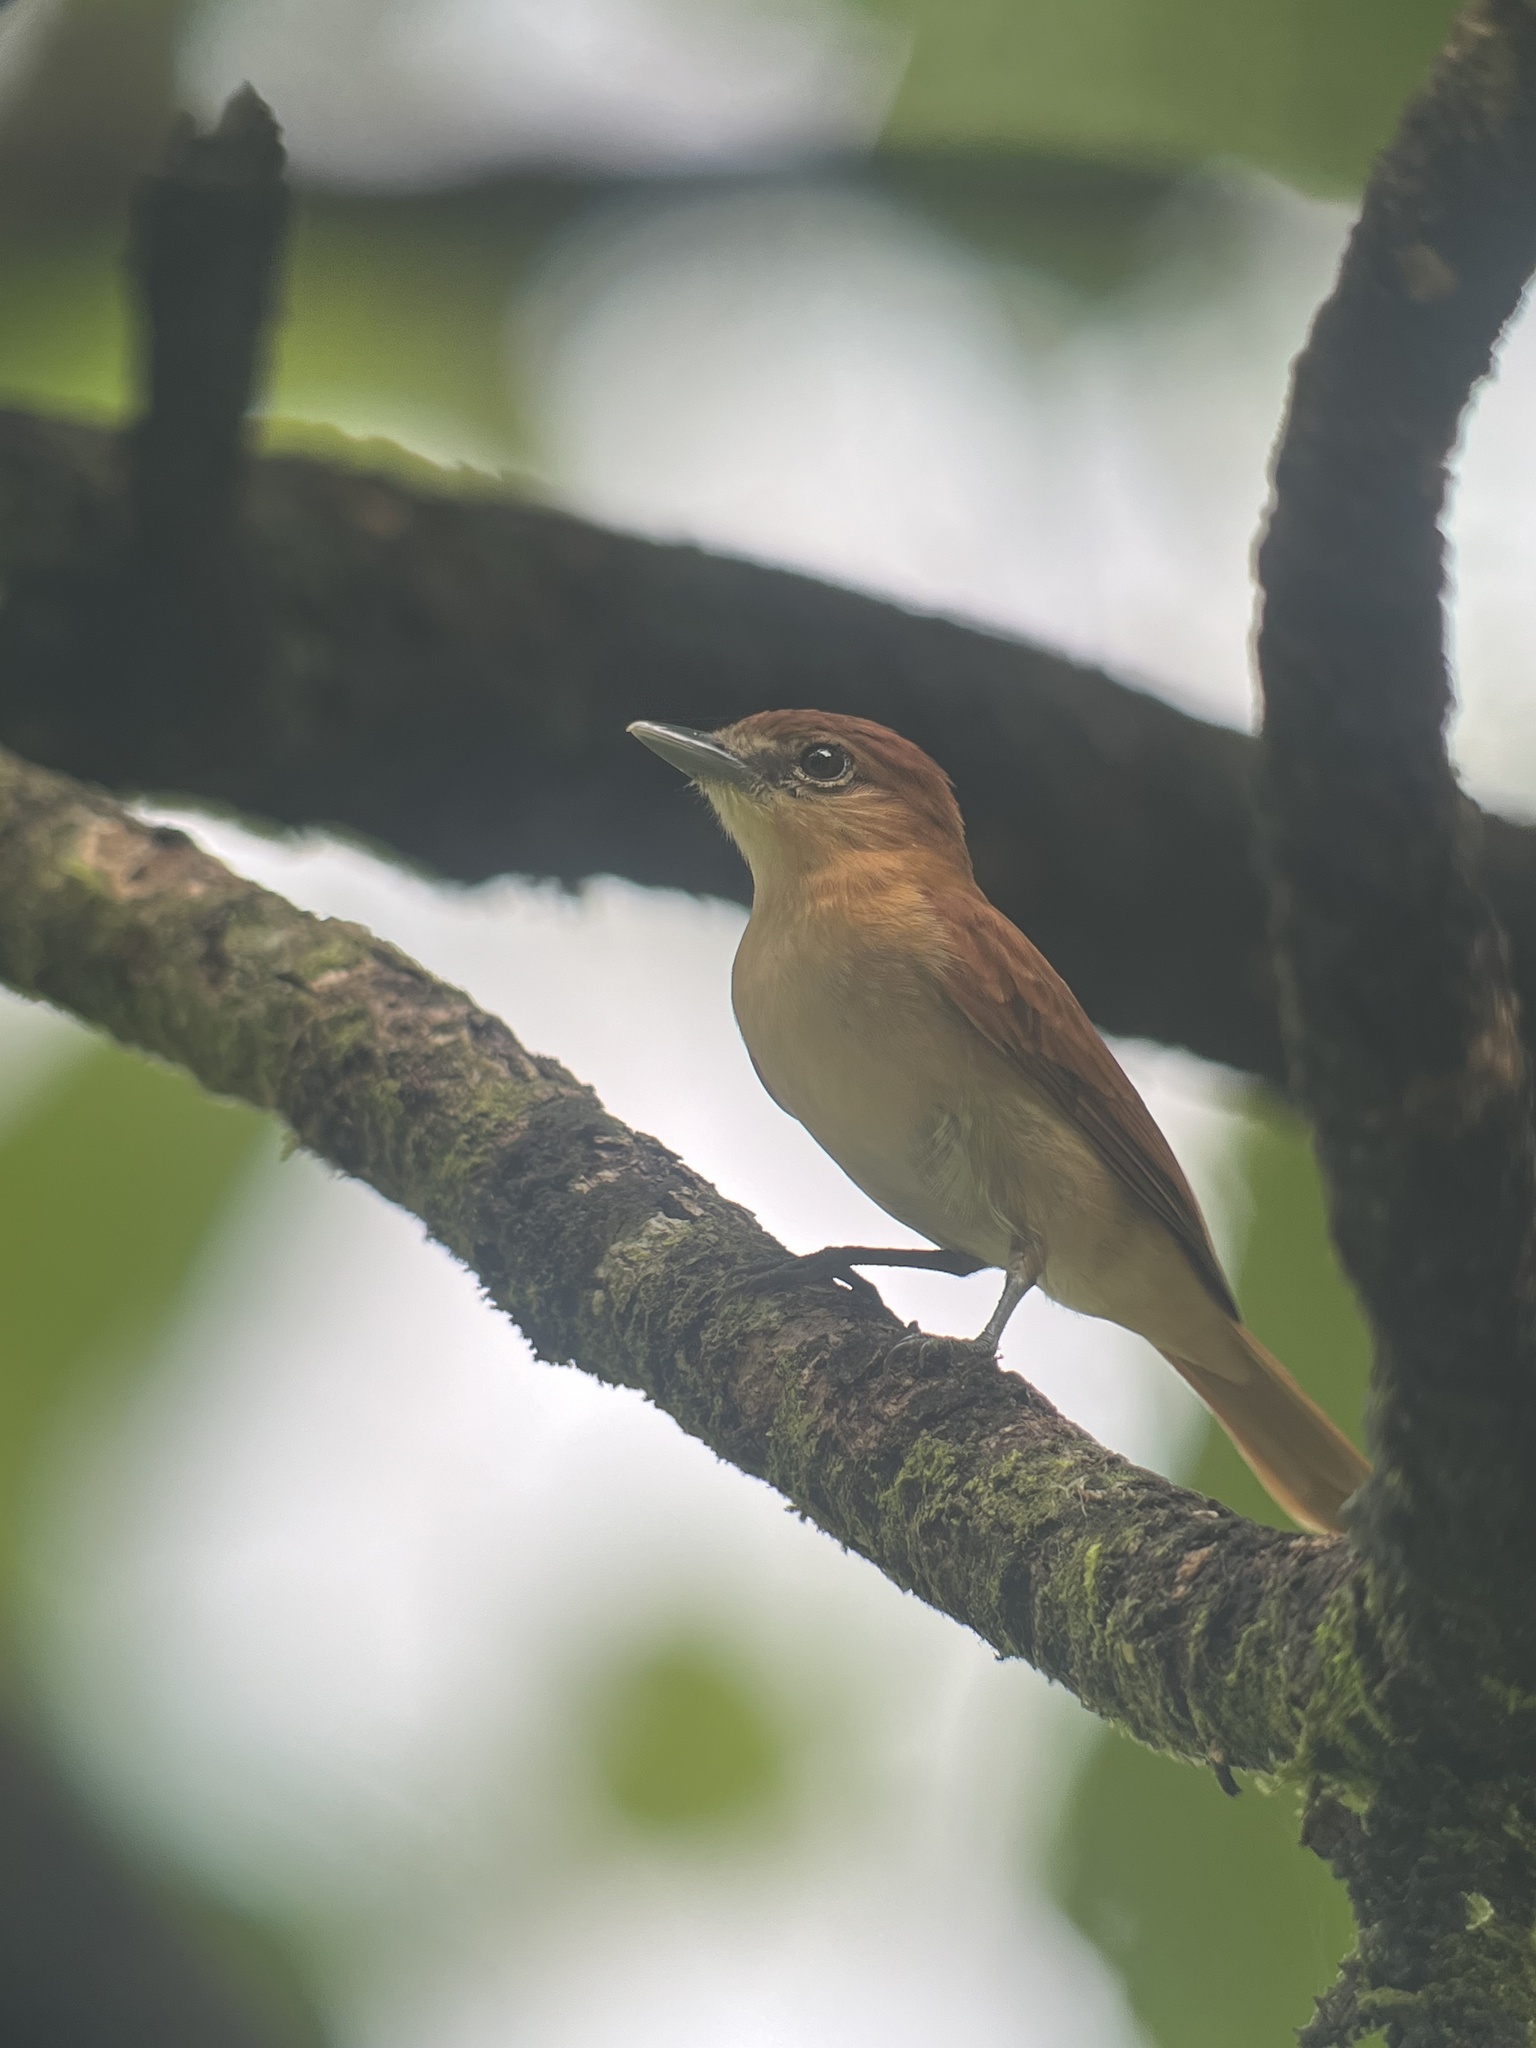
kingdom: Animalia
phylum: Chordata
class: Aves
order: Passeriformes
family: Cotingidae
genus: Pachyramphus
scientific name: Pachyramphus cinnamomeus
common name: Cinnamon becard
